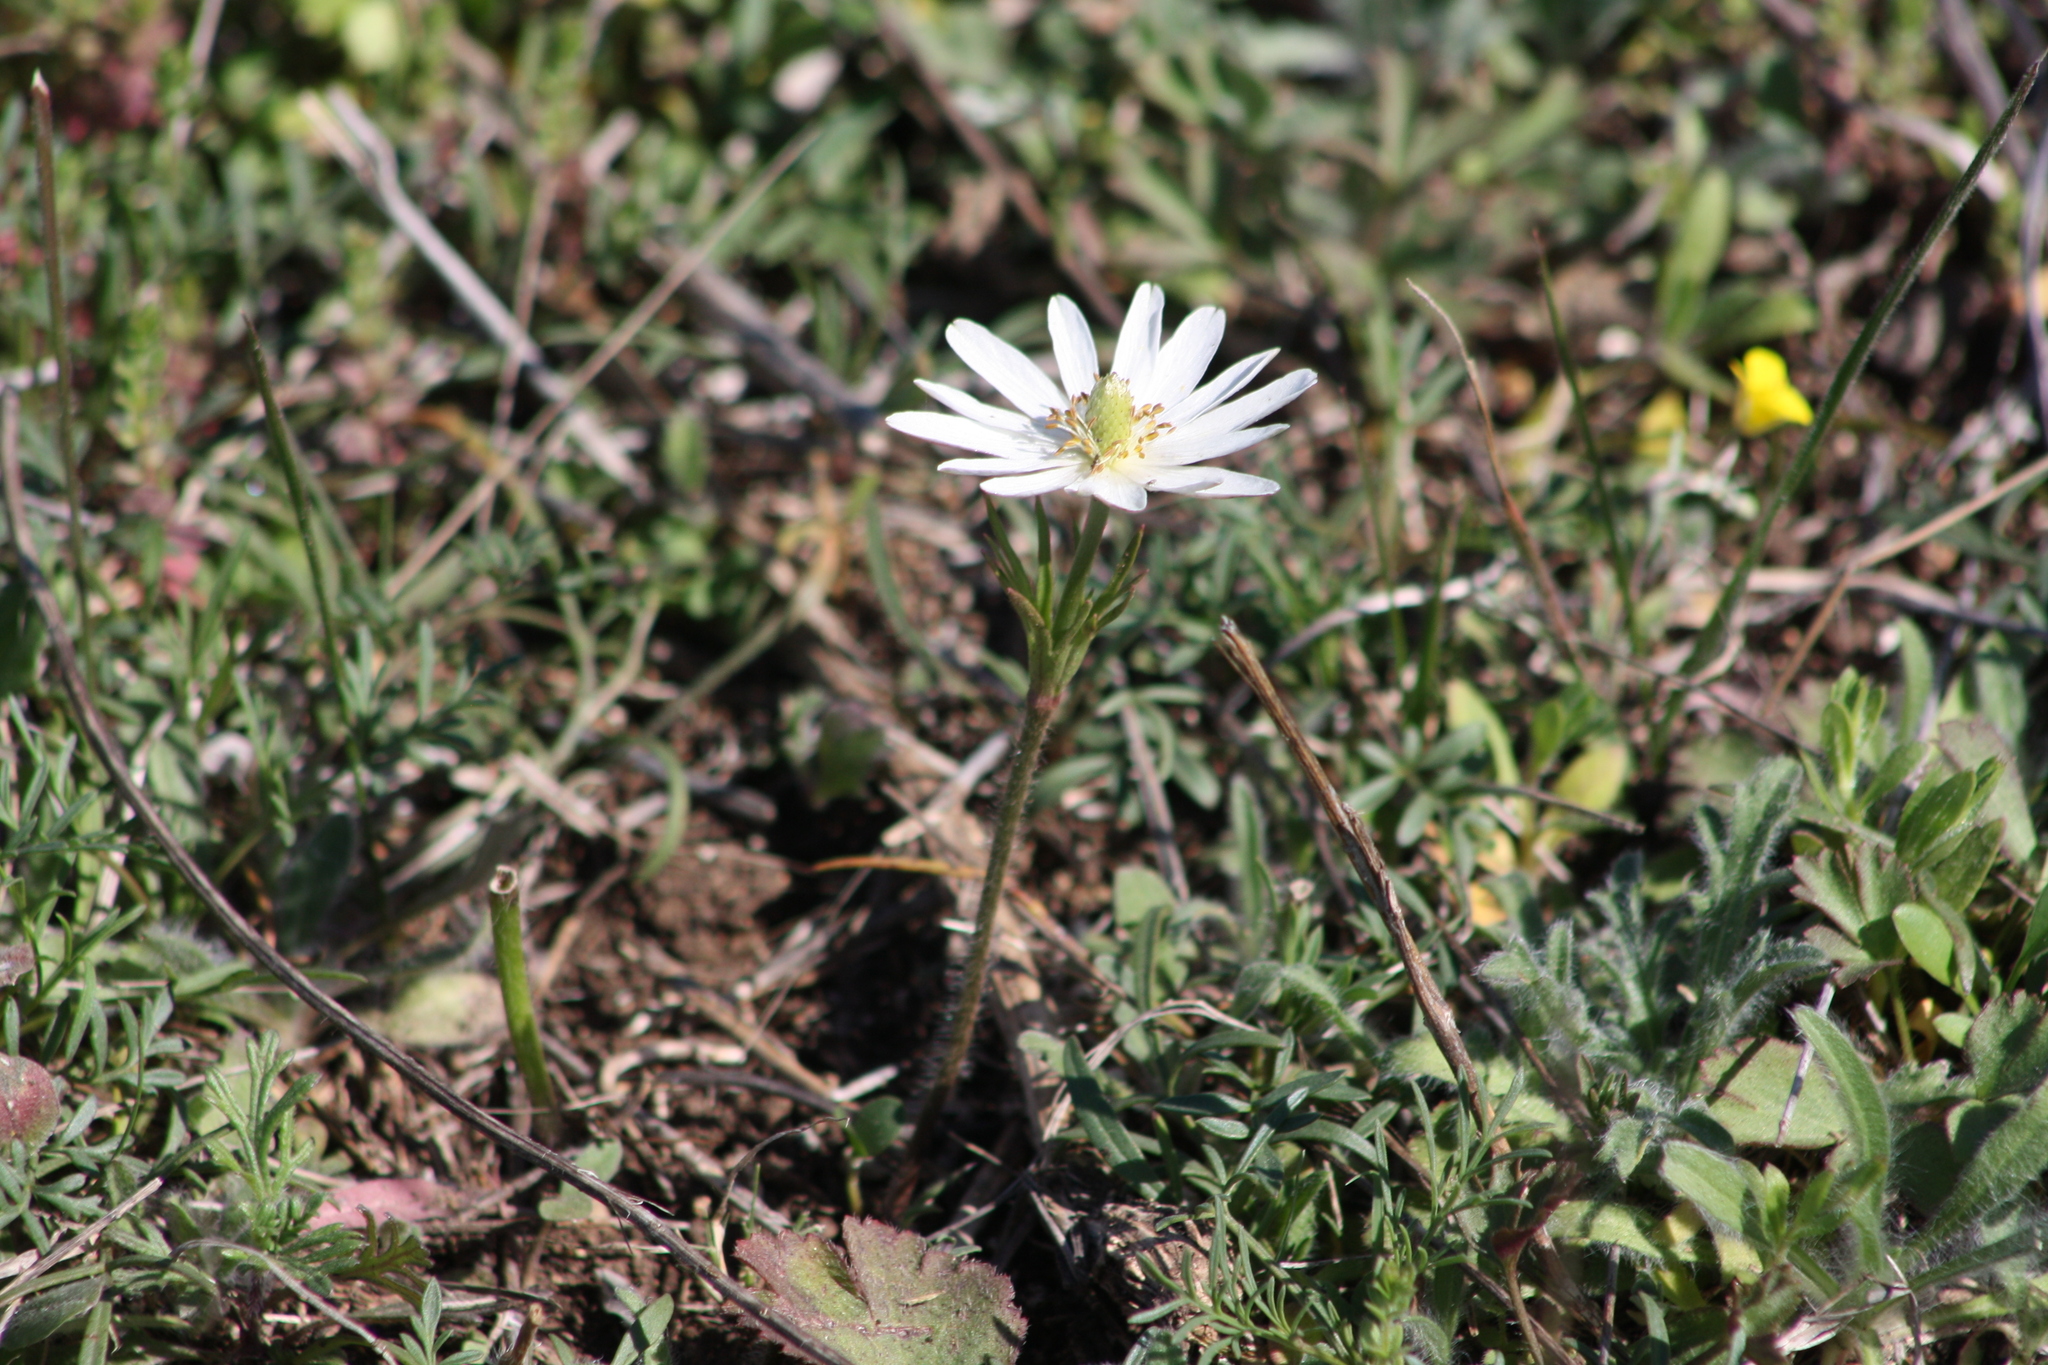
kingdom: Plantae
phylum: Tracheophyta
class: Magnoliopsida
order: Ranunculales
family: Ranunculaceae
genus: Anemone
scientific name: Anemone berlandieri
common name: Ten-petal anemone
